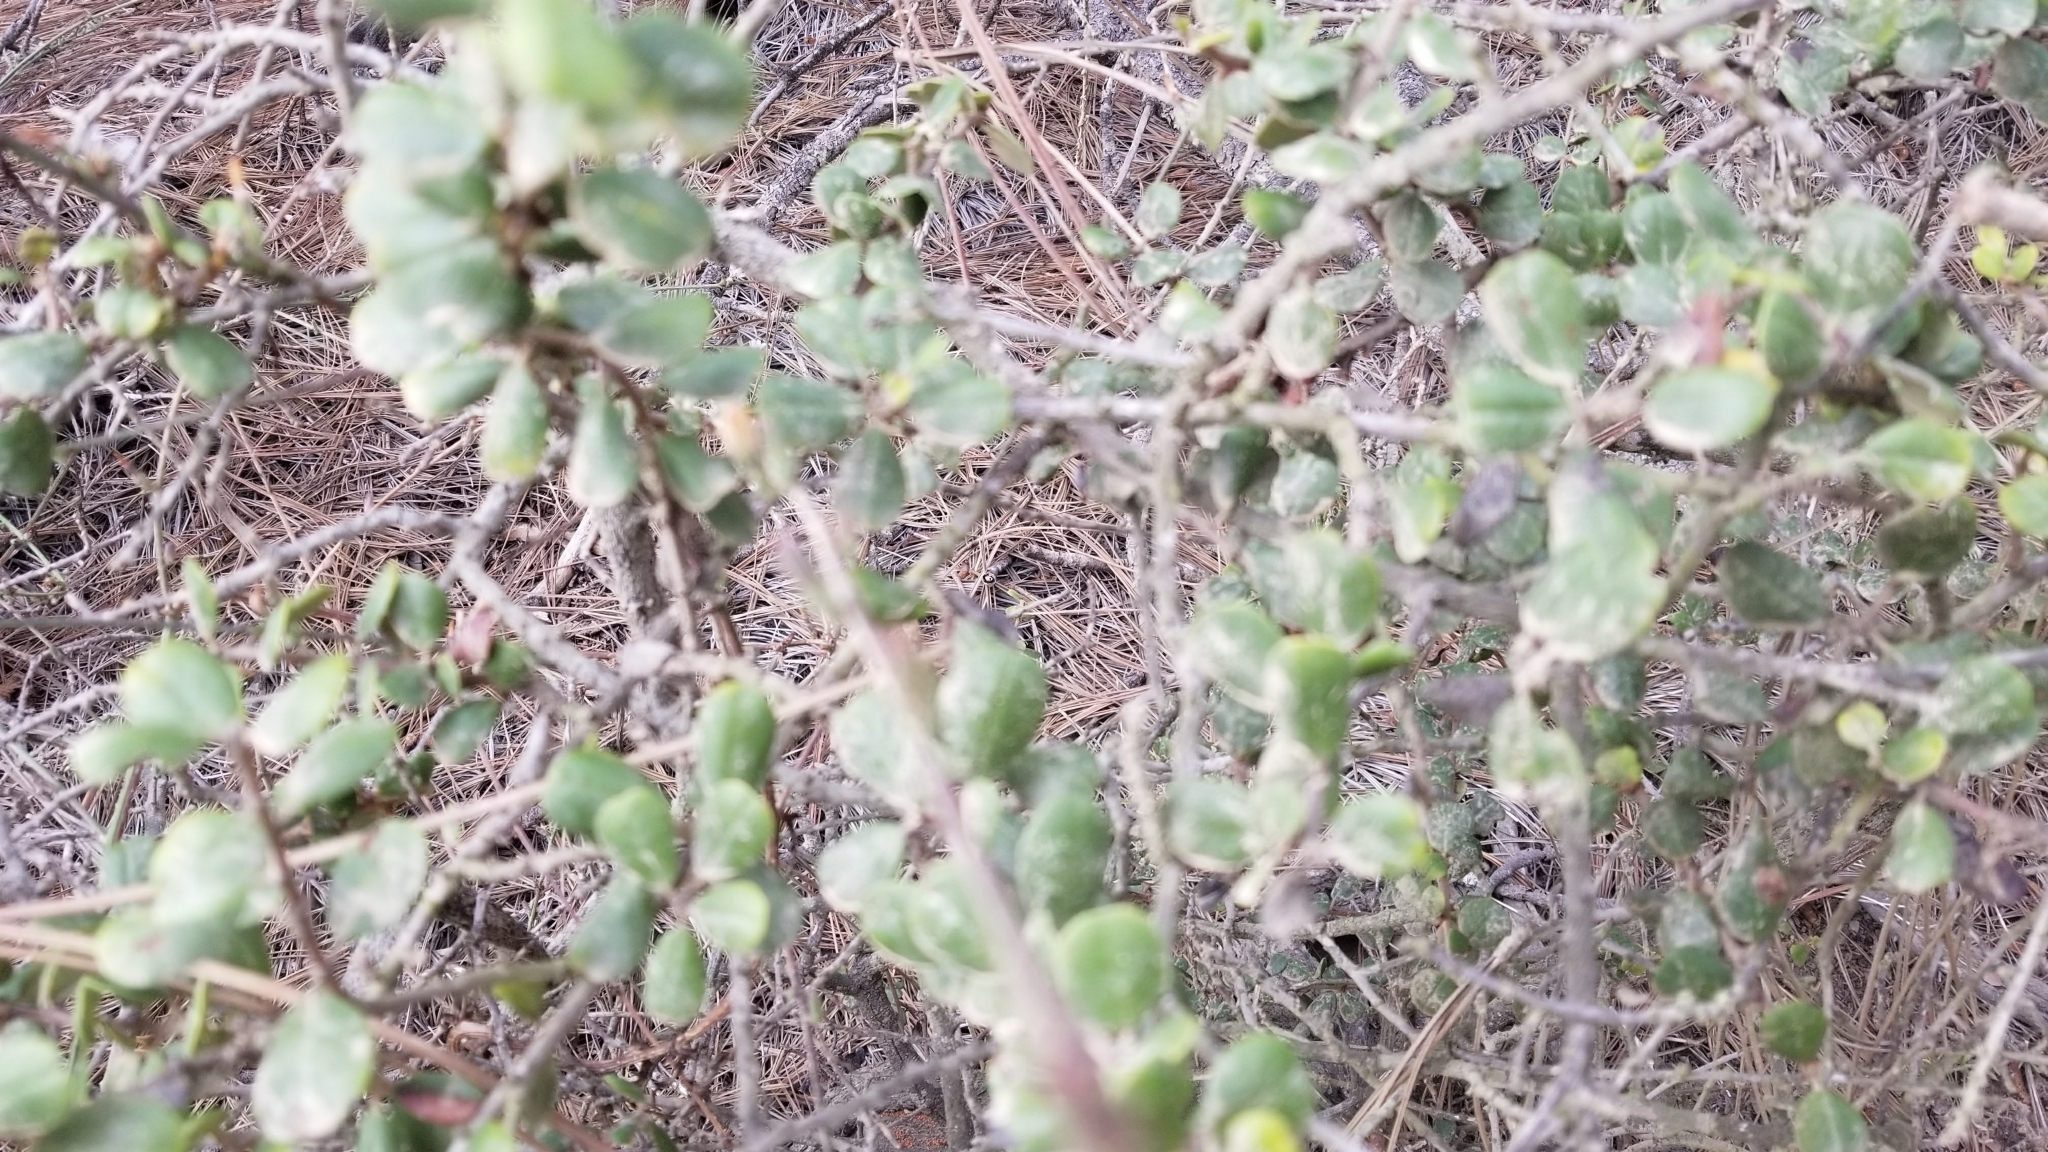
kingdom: Plantae
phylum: Tracheophyta
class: Magnoliopsida
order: Rosales
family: Rhamnaceae
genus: Ceanothus
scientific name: Ceanothus verrucosus
